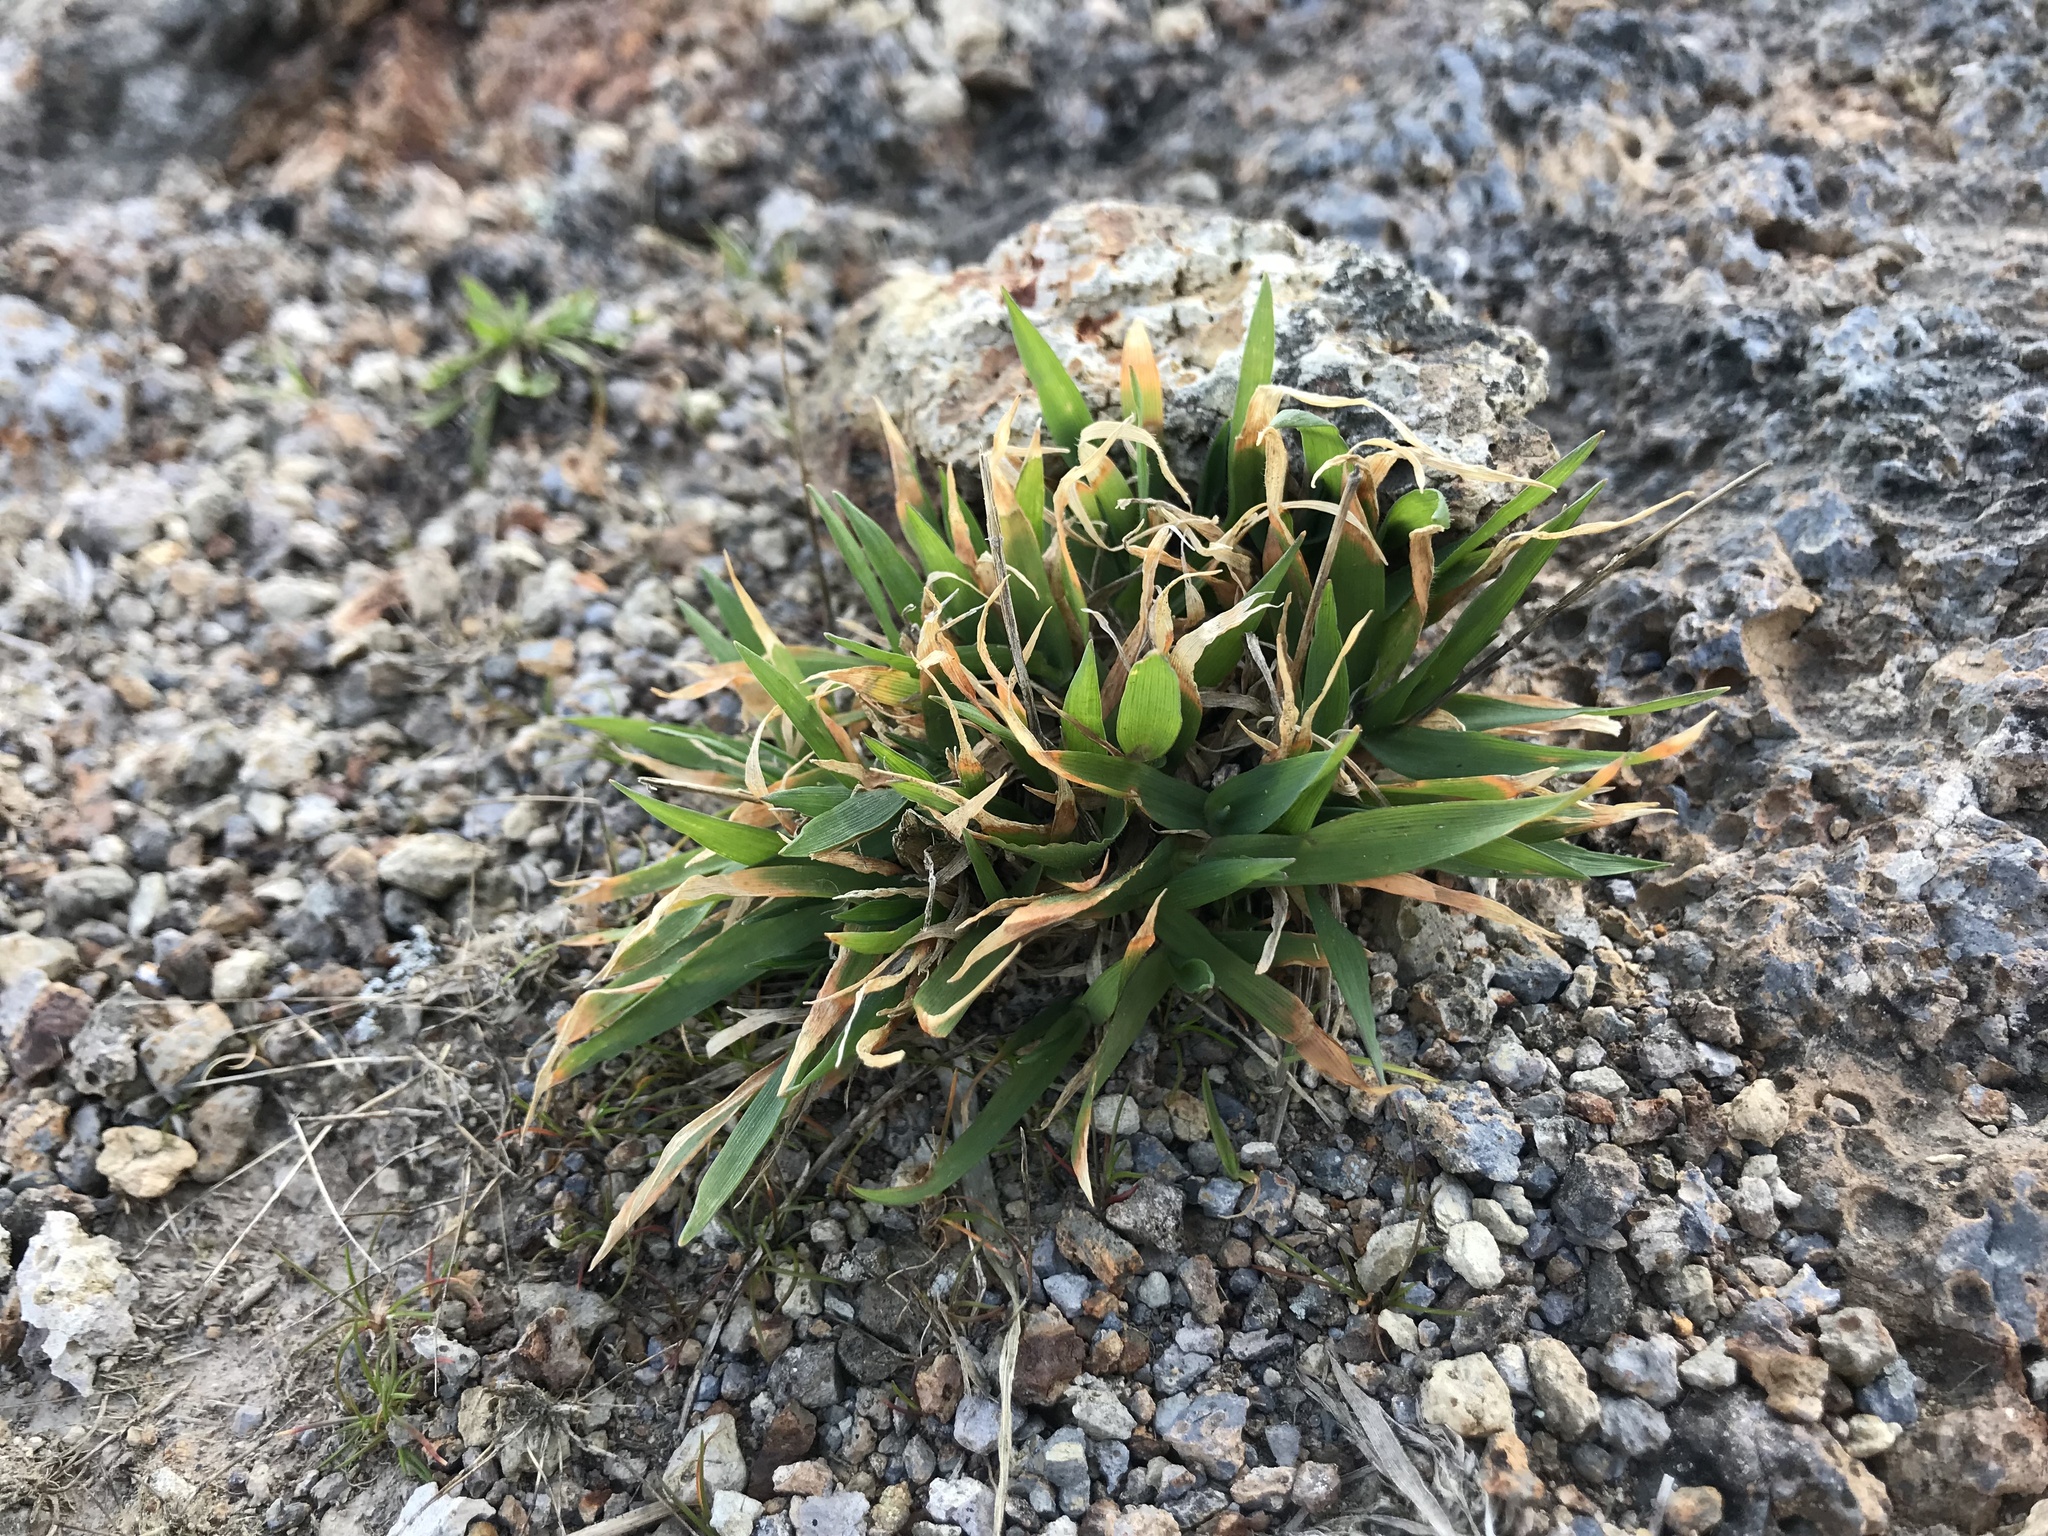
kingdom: Plantae
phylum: Tracheophyta
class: Liliopsida
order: Poales
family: Poaceae
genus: Lachnagrostis
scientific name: Lachnagrostis billardierei
